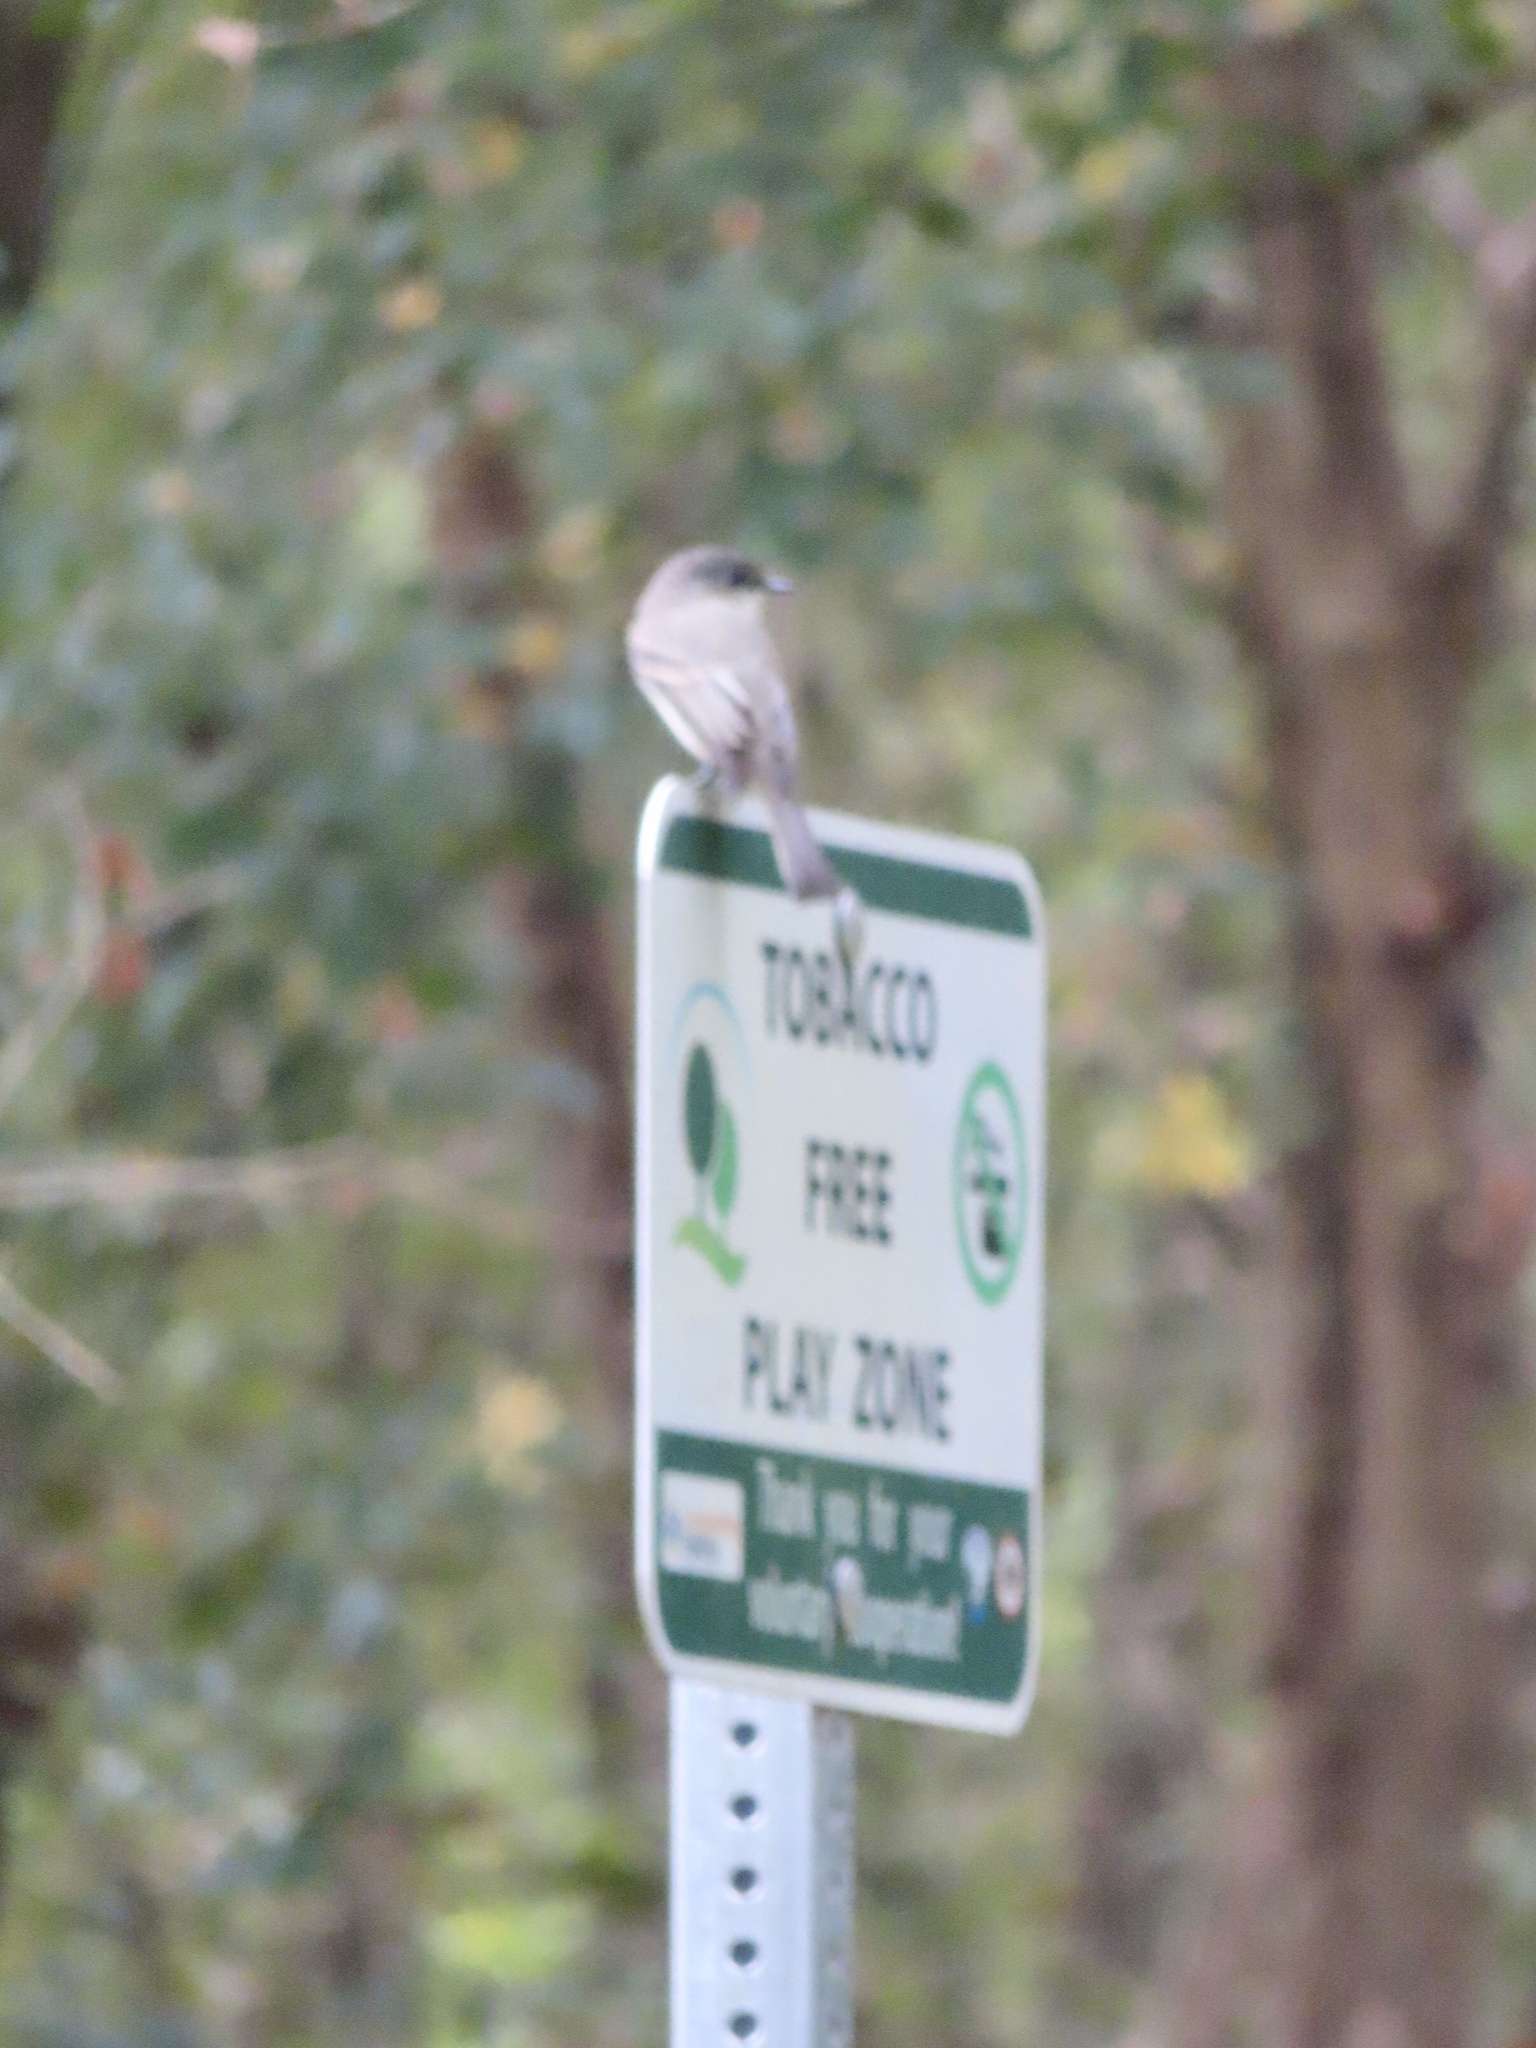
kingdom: Animalia
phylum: Chordata
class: Aves
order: Passeriformes
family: Tyrannidae
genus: Sayornis
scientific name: Sayornis phoebe
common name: Eastern phoebe
